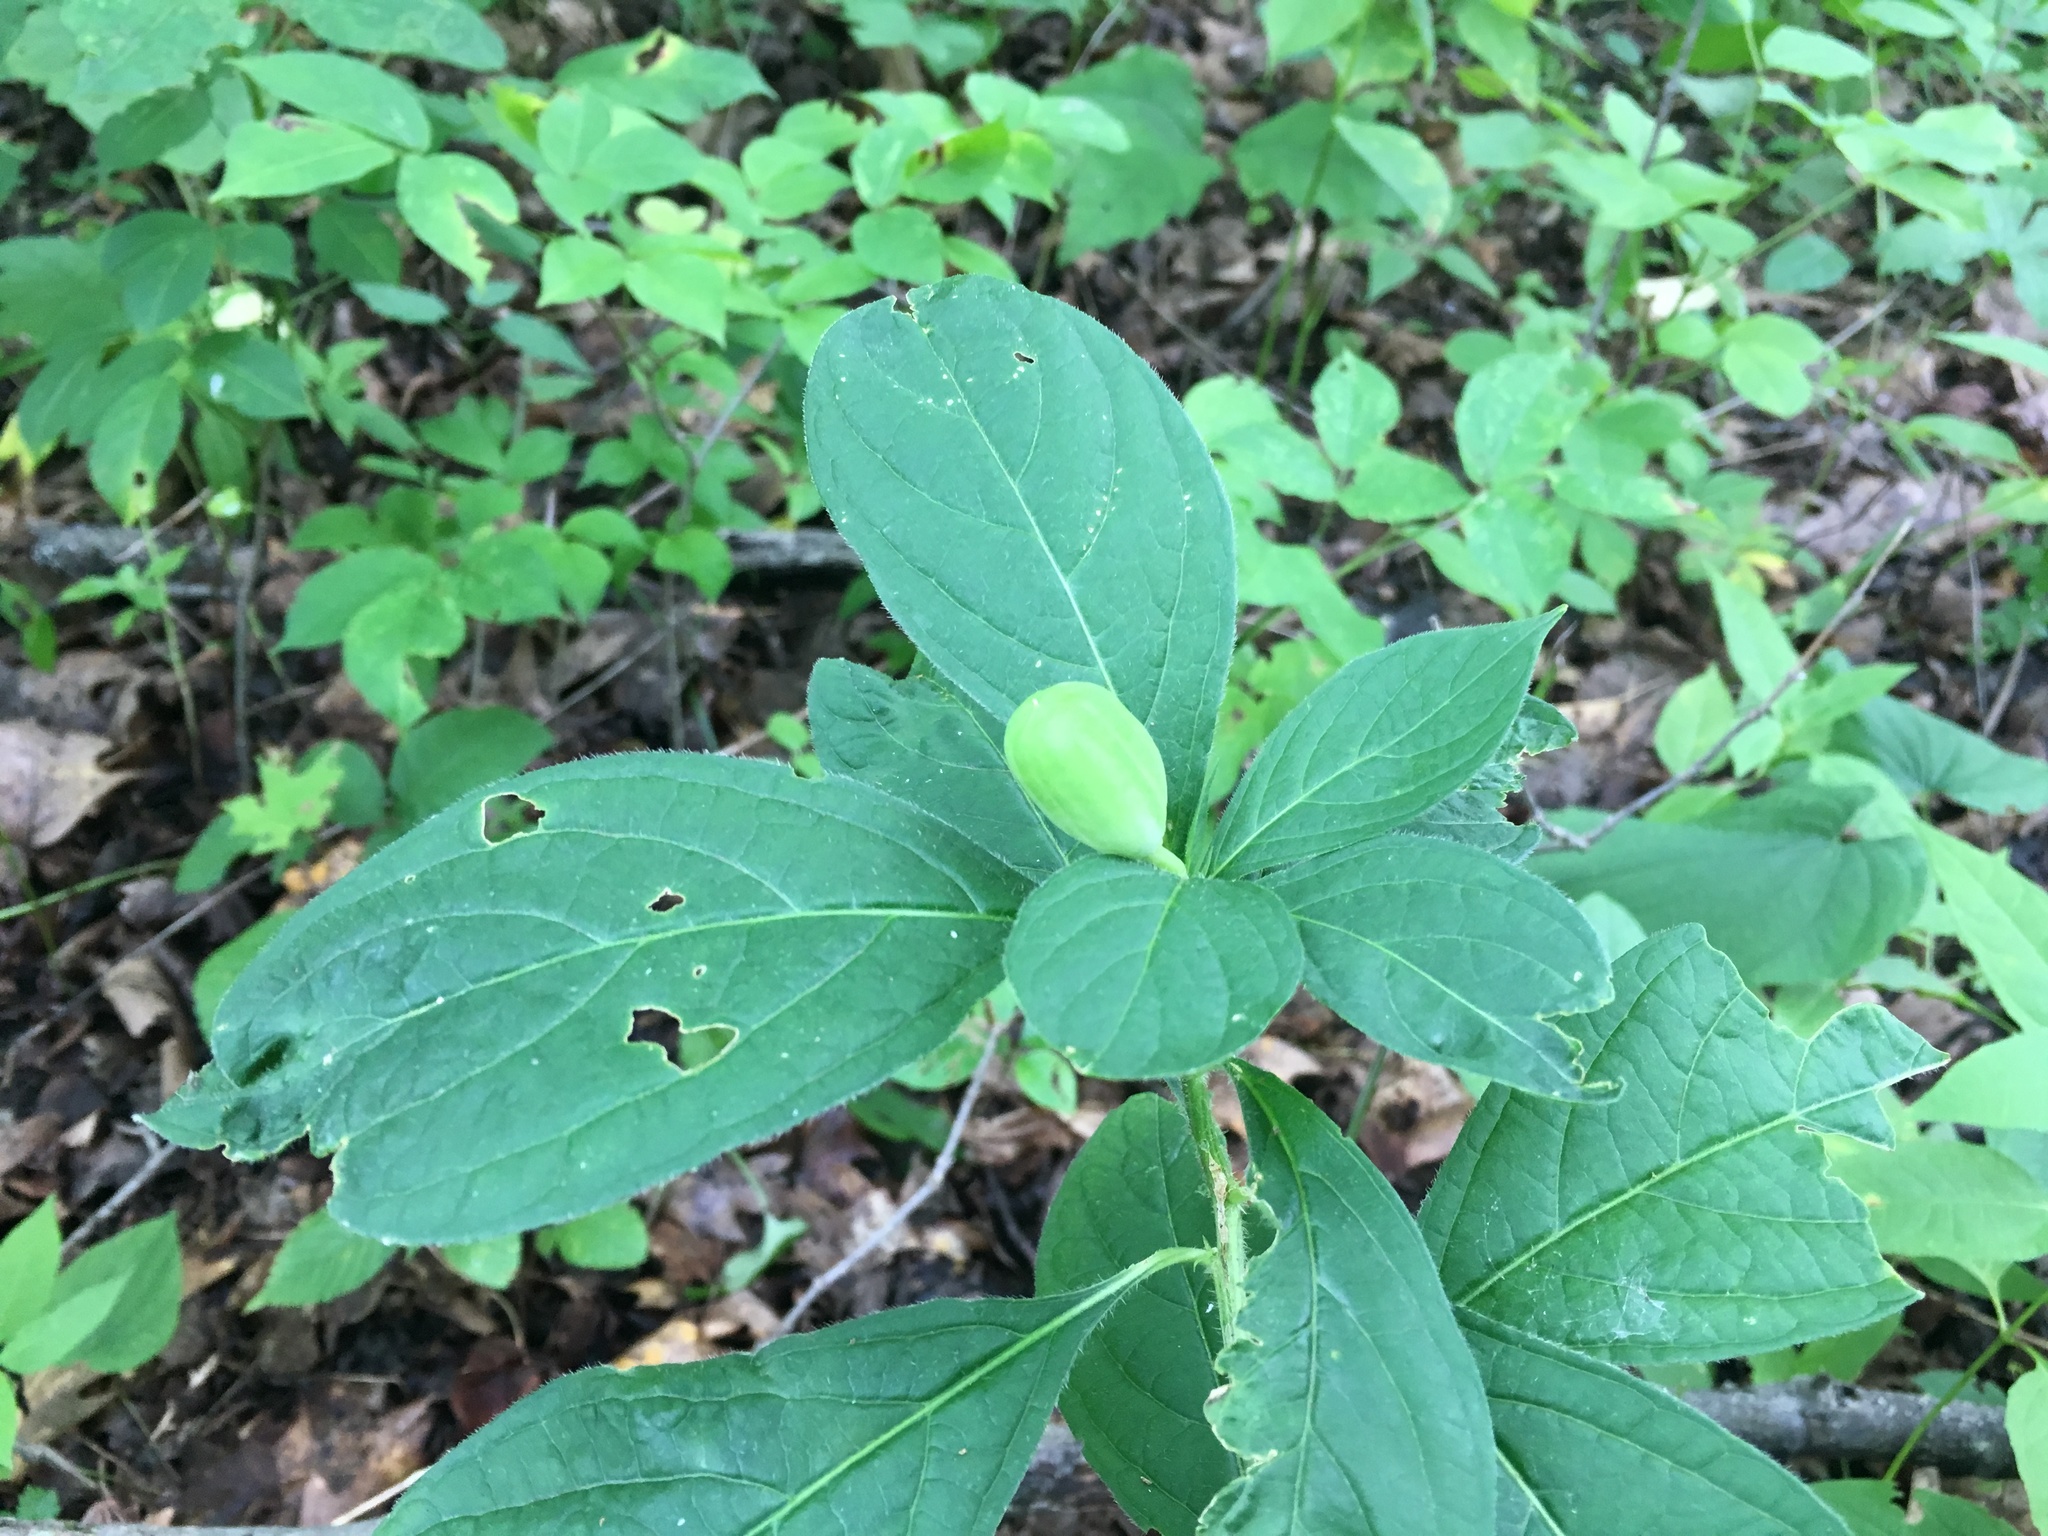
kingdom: Plantae
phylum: Tracheophyta
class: Magnoliopsida
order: Malpighiales
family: Violaceae
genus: Cubelium
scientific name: Cubelium concolor
